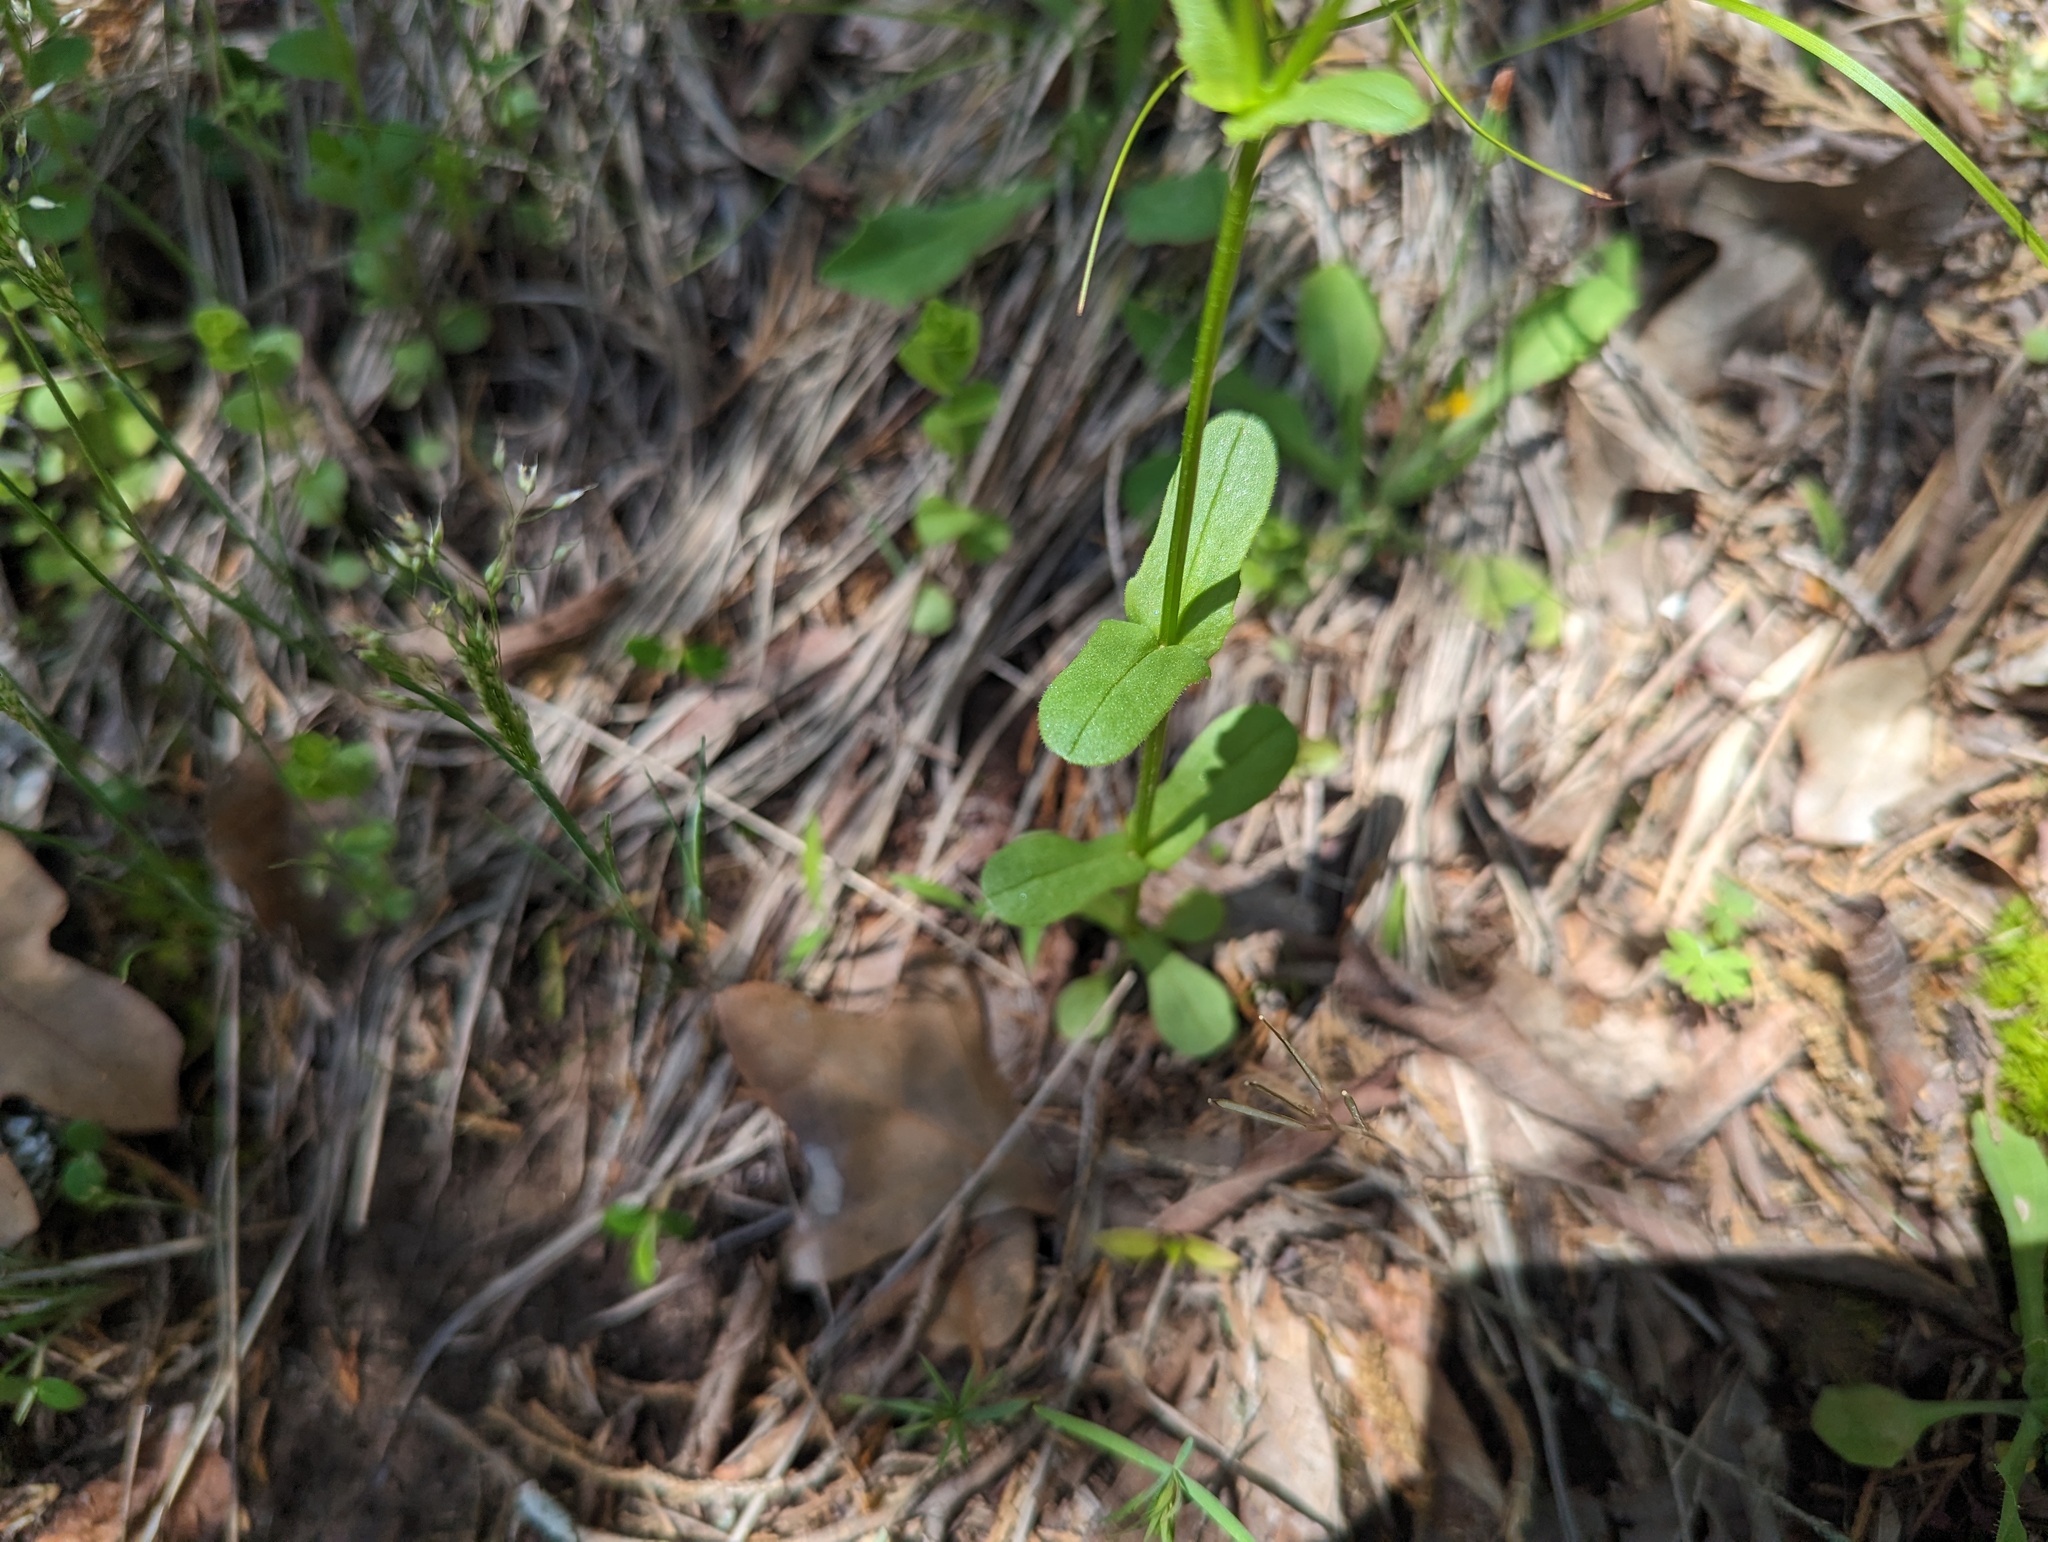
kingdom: Plantae
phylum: Tracheophyta
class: Magnoliopsida
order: Dipsacales
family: Caprifoliaceae
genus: Valerianella
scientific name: Valerianella radiata
